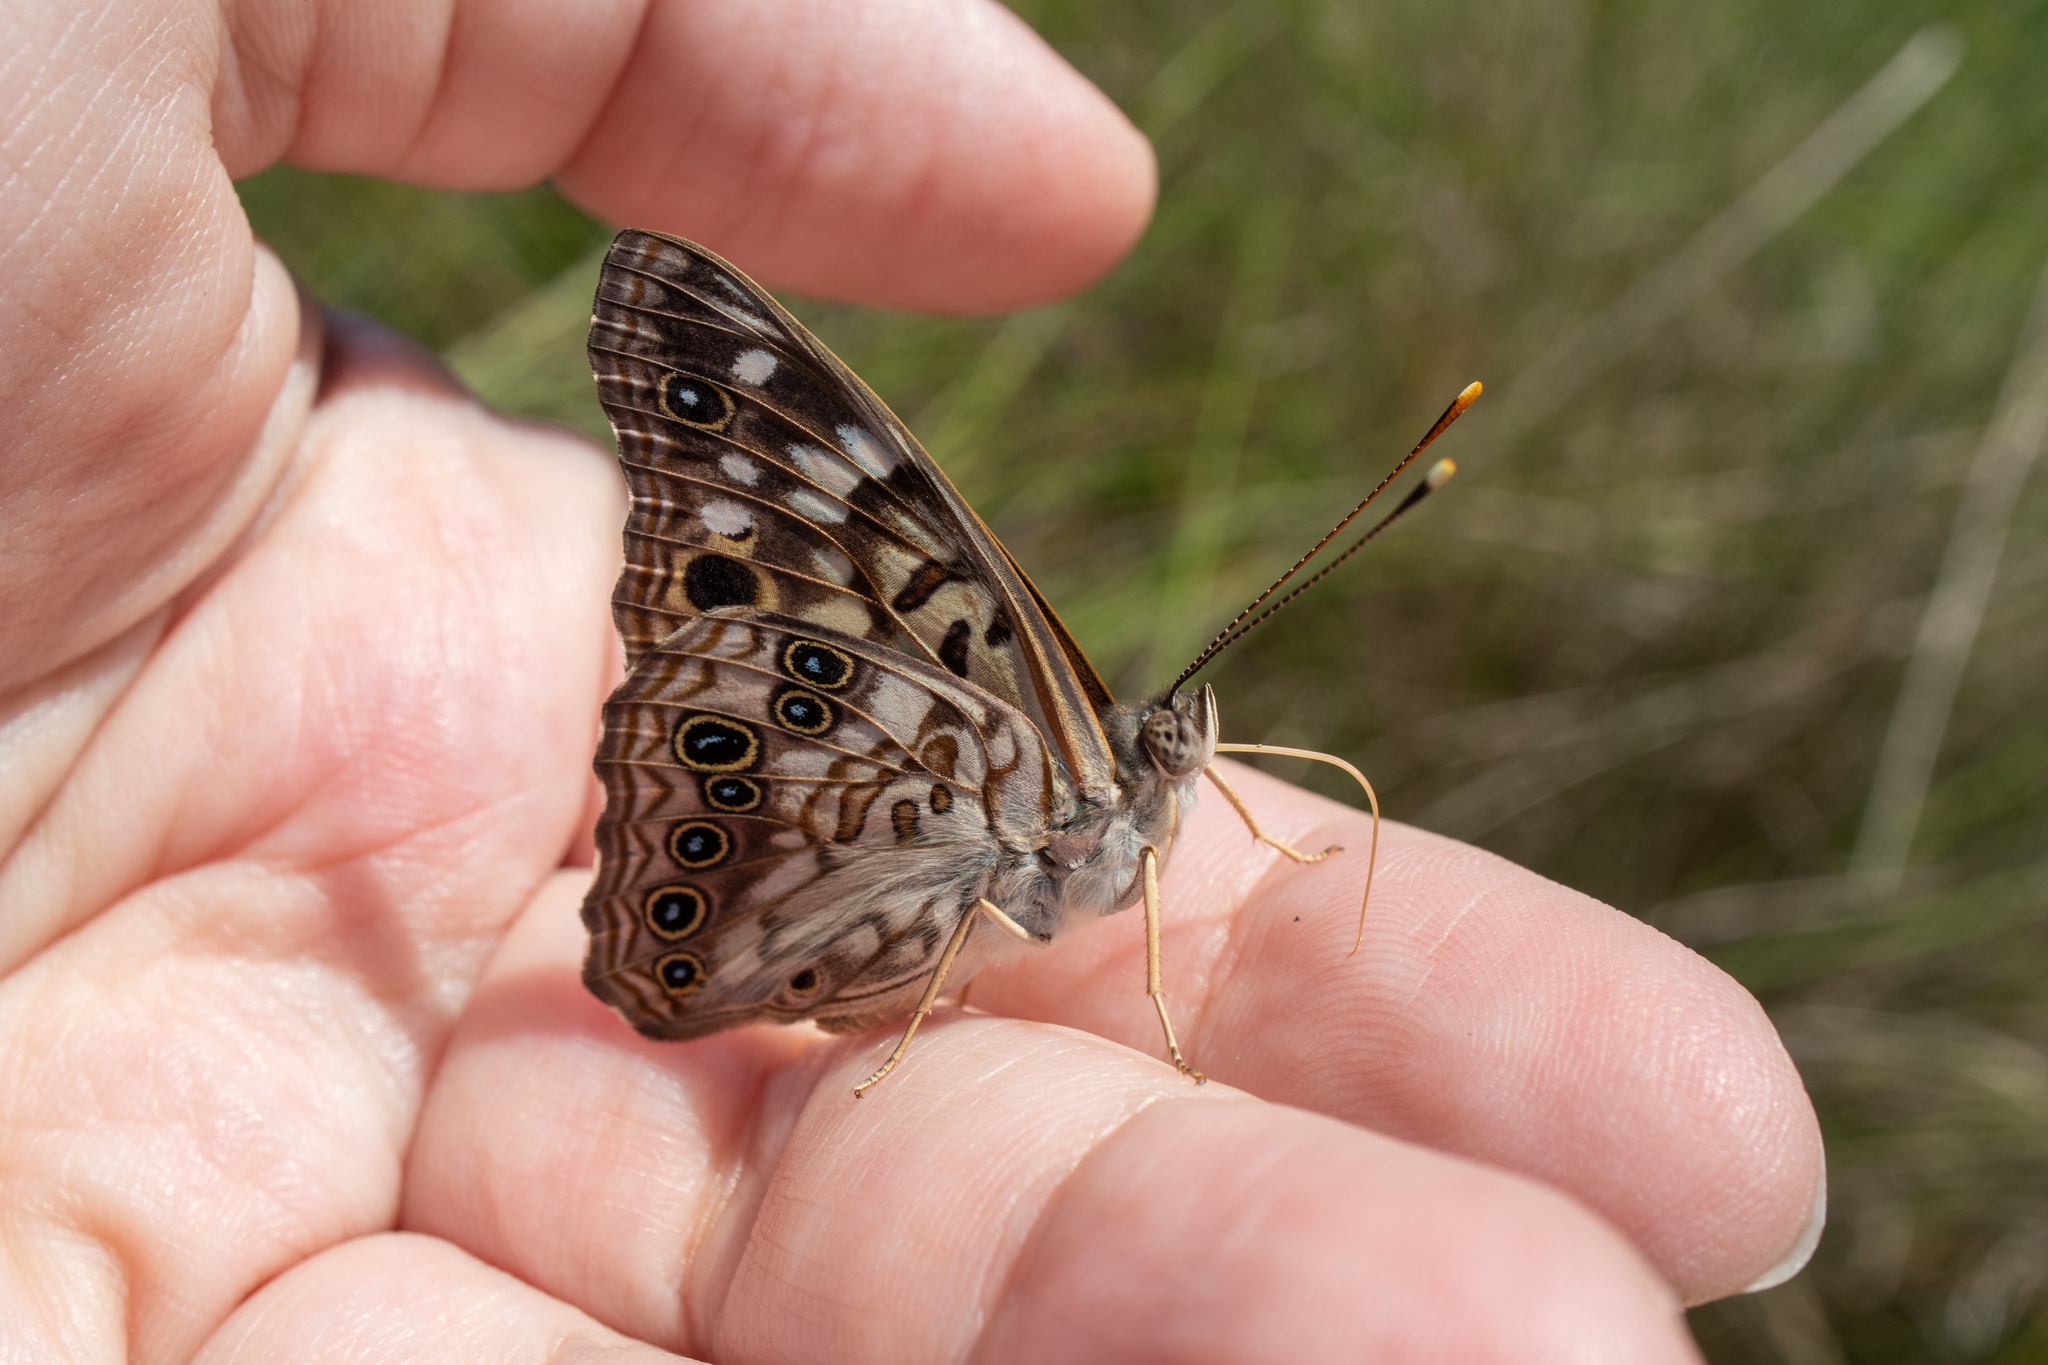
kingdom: Animalia
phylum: Arthropoda
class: Insecta
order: Lepidoptera
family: Nymphalidae
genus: Asterocampa
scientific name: Asterocampa celtis
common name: Hackberry emperor
